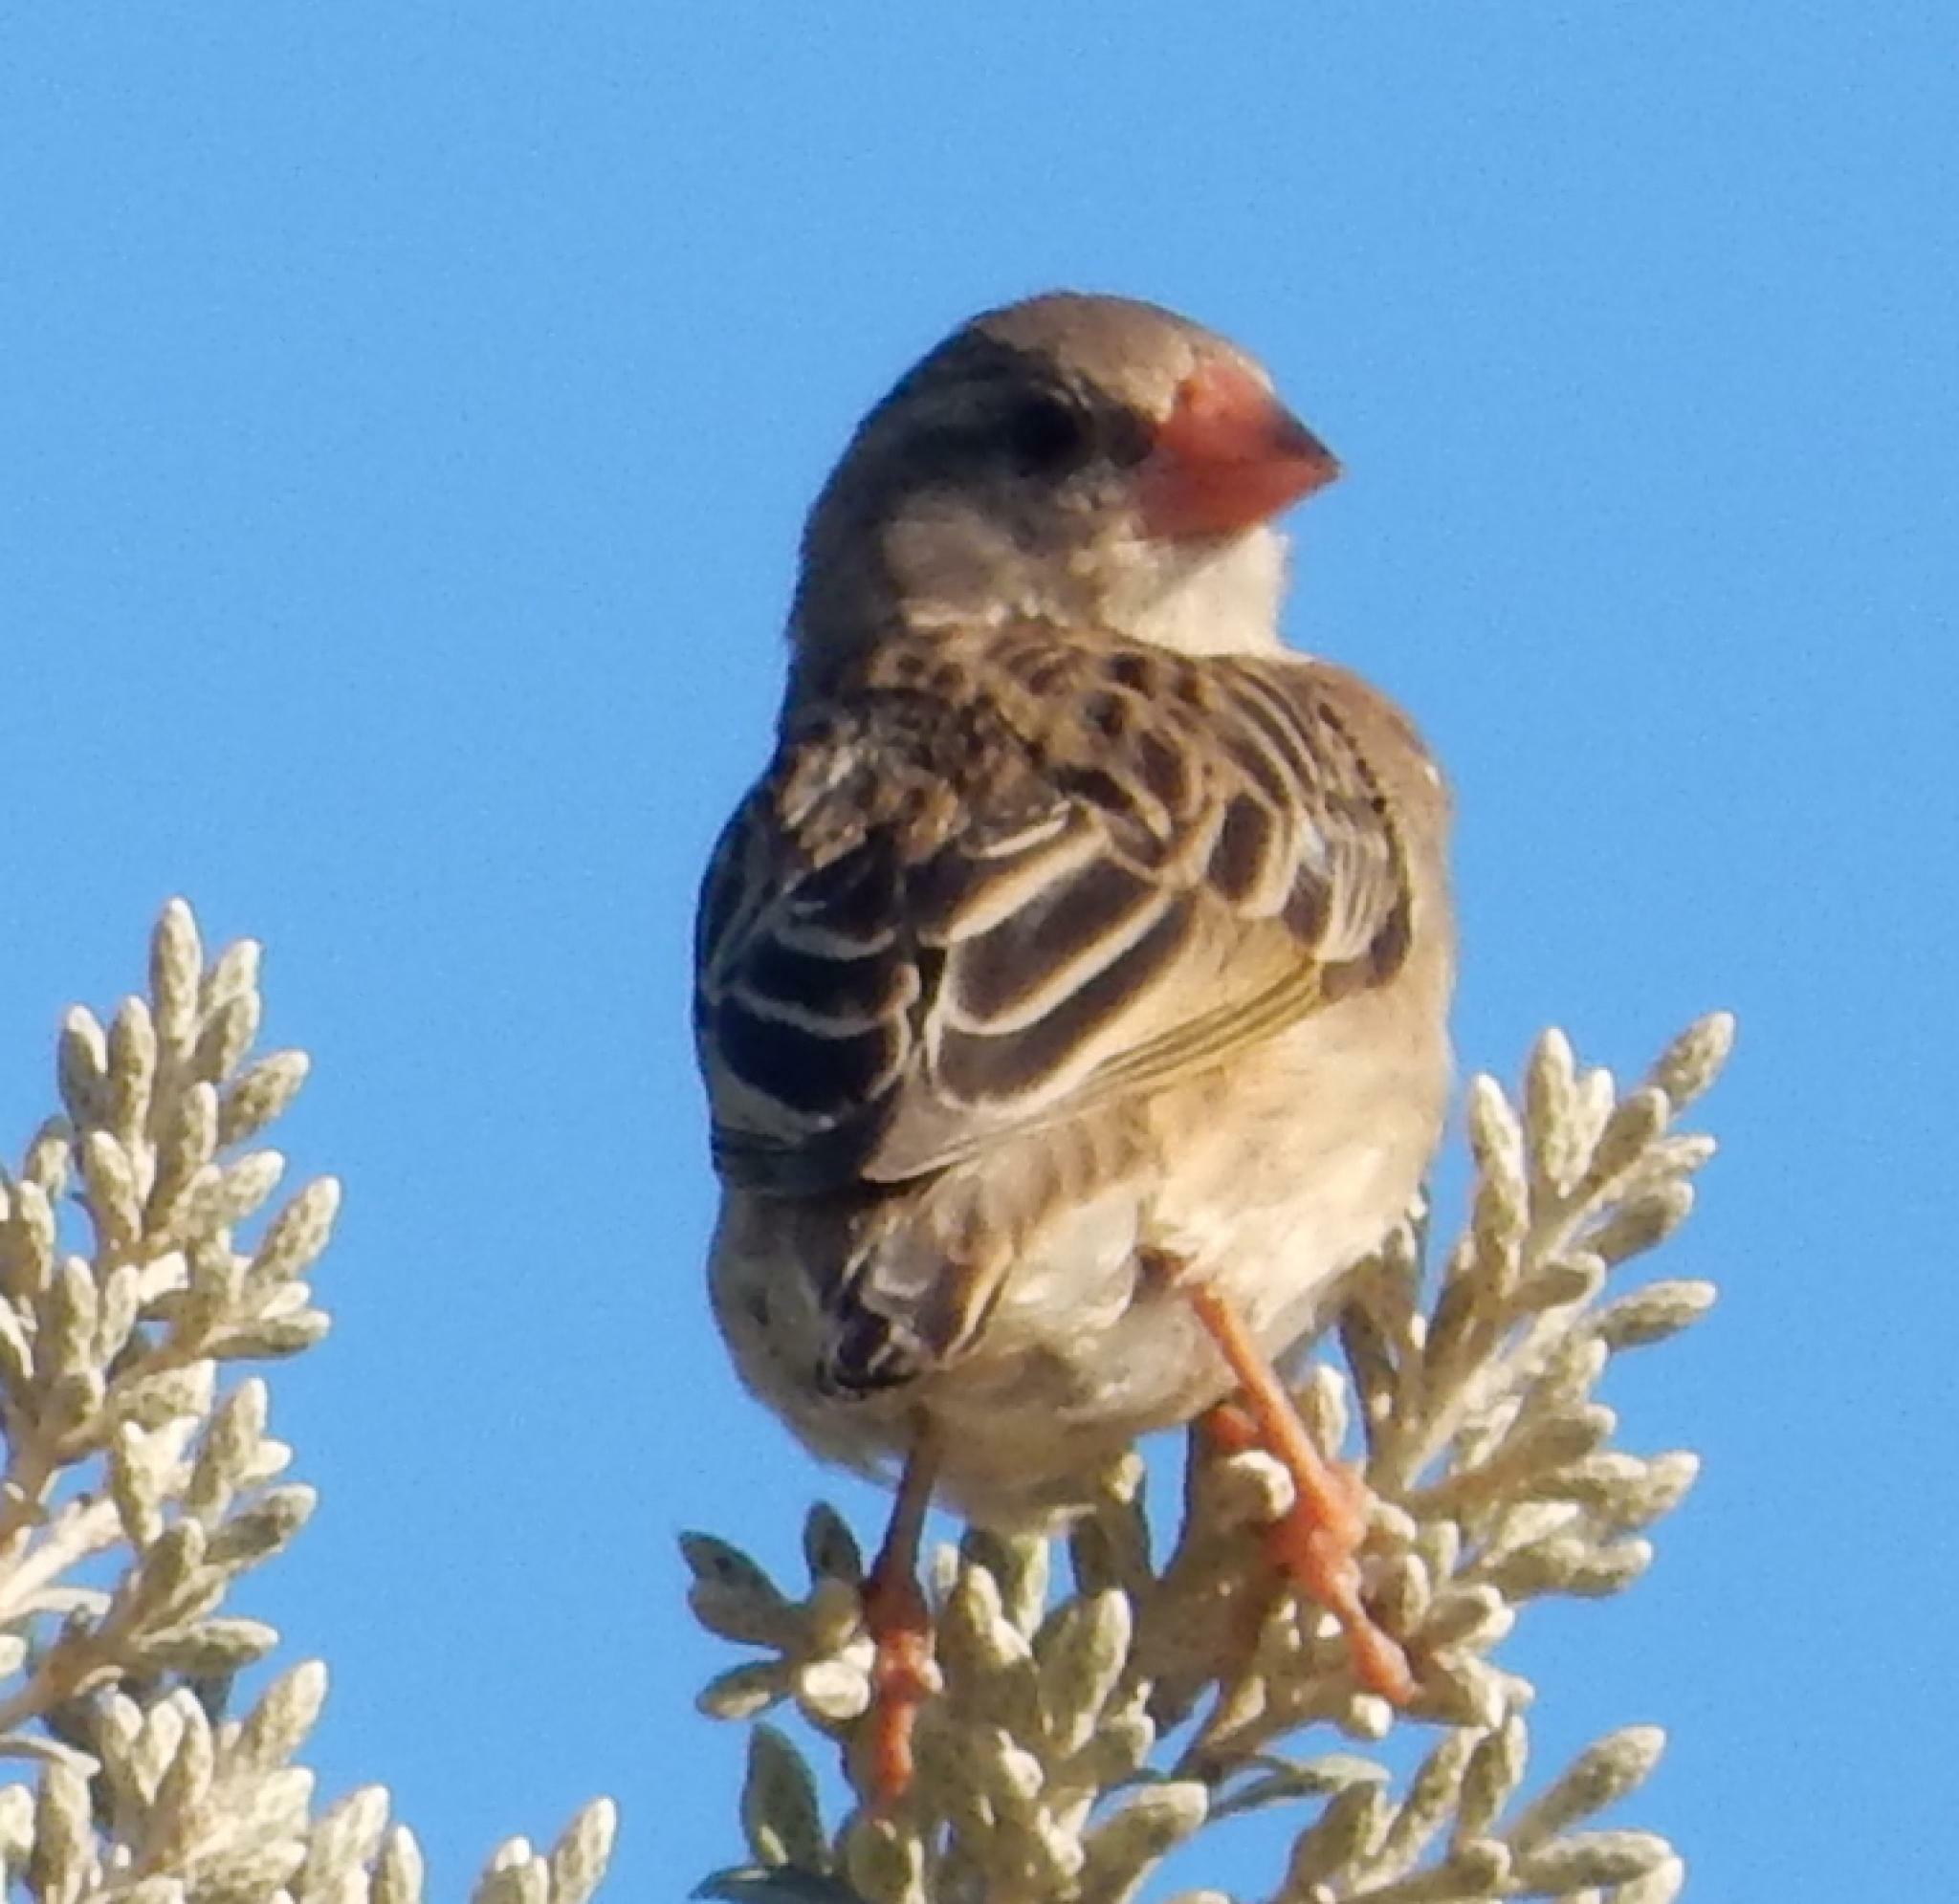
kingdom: Animalia
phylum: Chordata
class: Aves
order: Passeriformes
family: Ploceidae
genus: Quelea
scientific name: Quelea quelea
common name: Red-billed quelea
